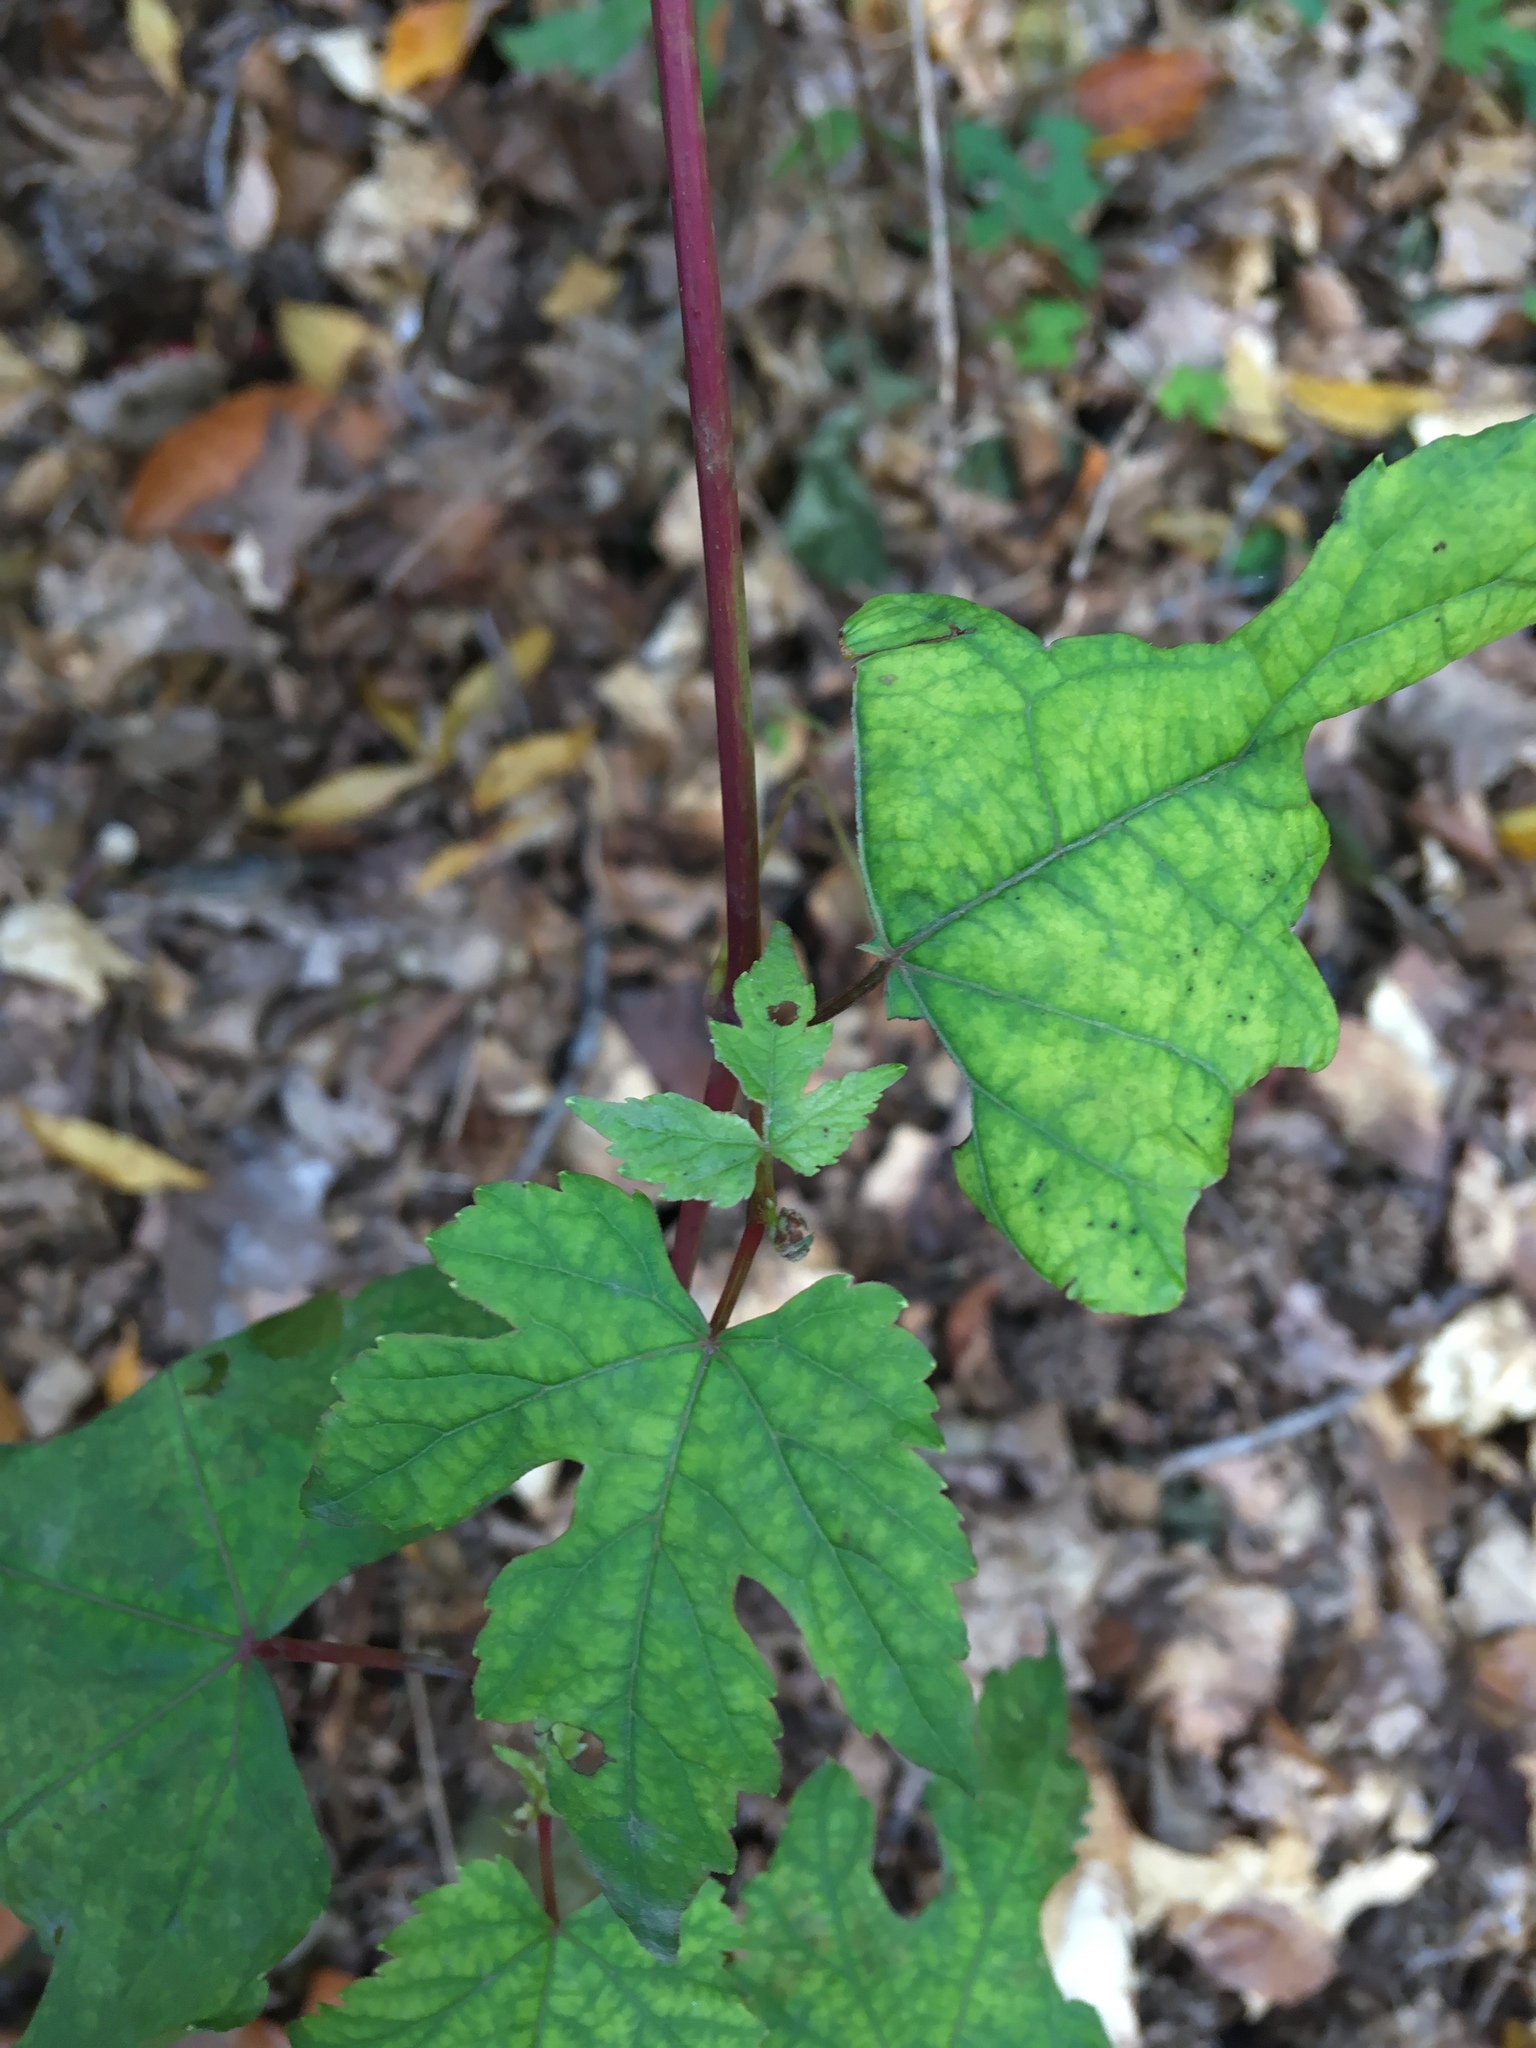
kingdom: Plantae
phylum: Tracheophyta
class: Magnoliopsida
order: Vitales
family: Vitaceae
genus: Ampelopsis
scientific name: Ampelopsis glandulosa
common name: Amur peppervine
